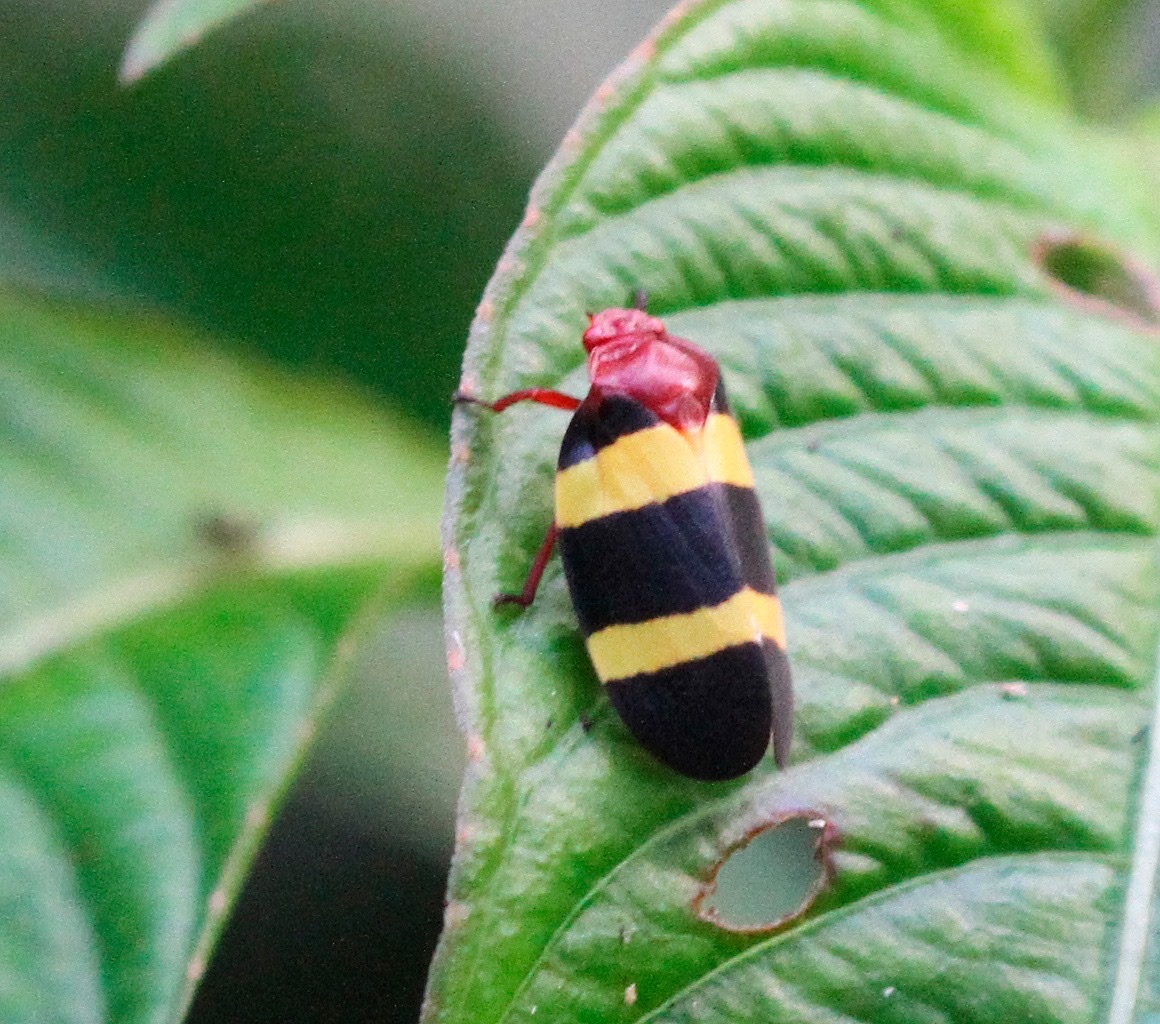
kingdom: Animalia
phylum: Arthropoda
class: Insecta
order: Hemiptera
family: Cercopidae
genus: Sphenorhina
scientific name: Sphenorhina rubra
